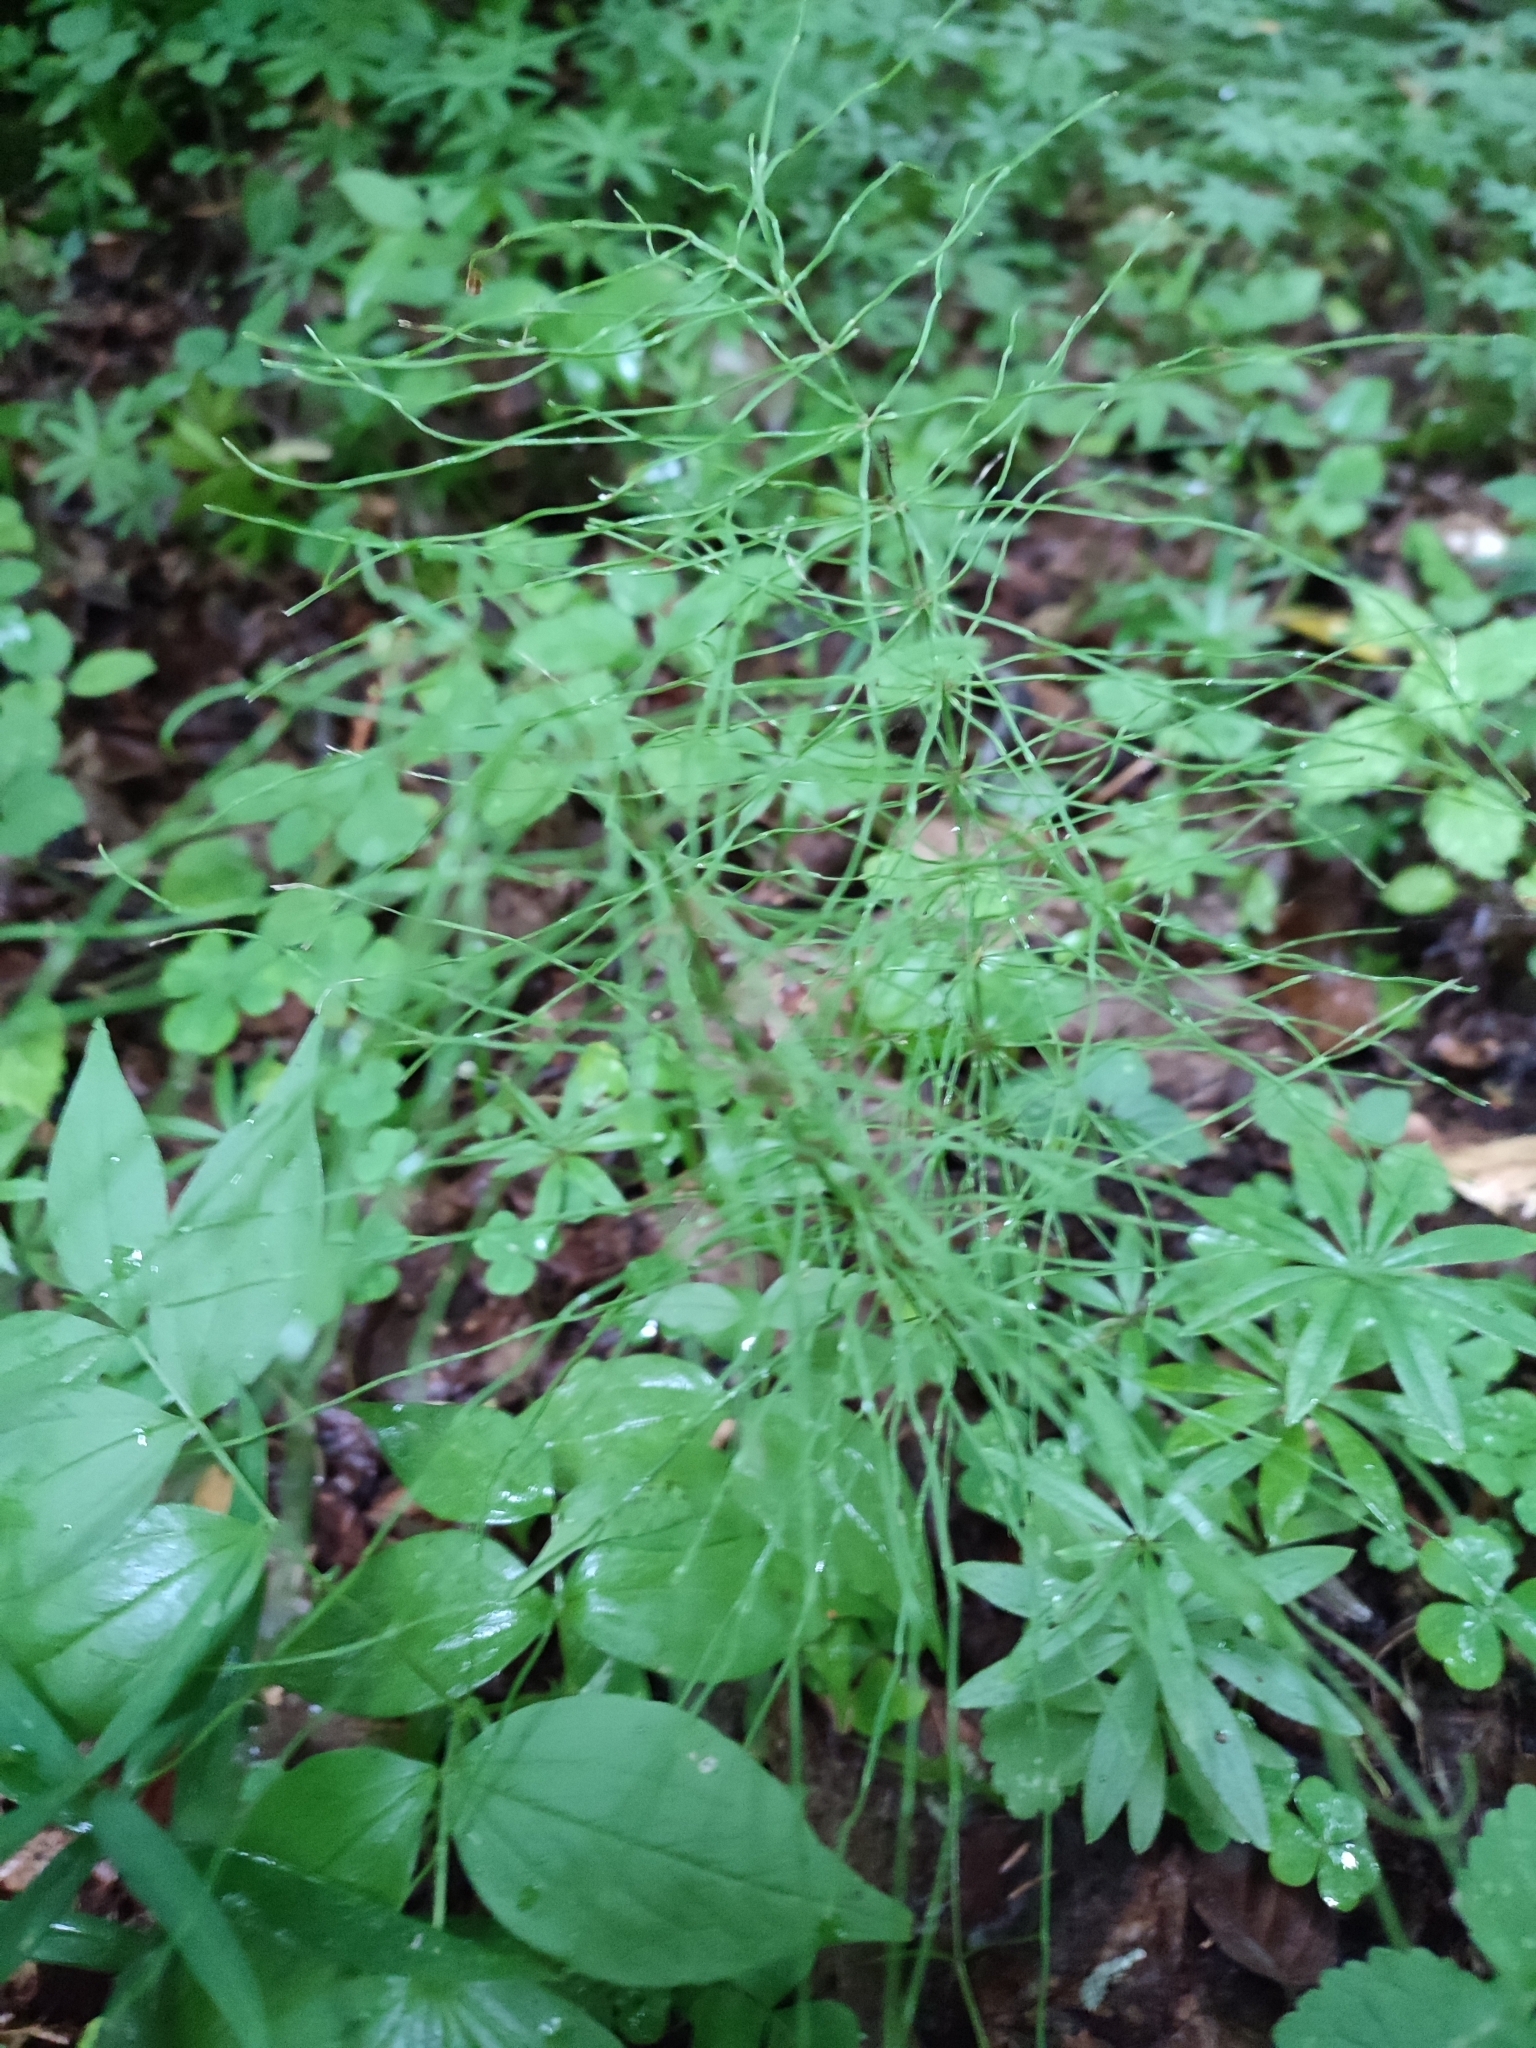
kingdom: Plantae
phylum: Tracheophyta
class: Polypodiopsida
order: Equisetales
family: Equisetaceae
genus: Equisetum
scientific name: Equisetum pratense
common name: Meadow horsetail
